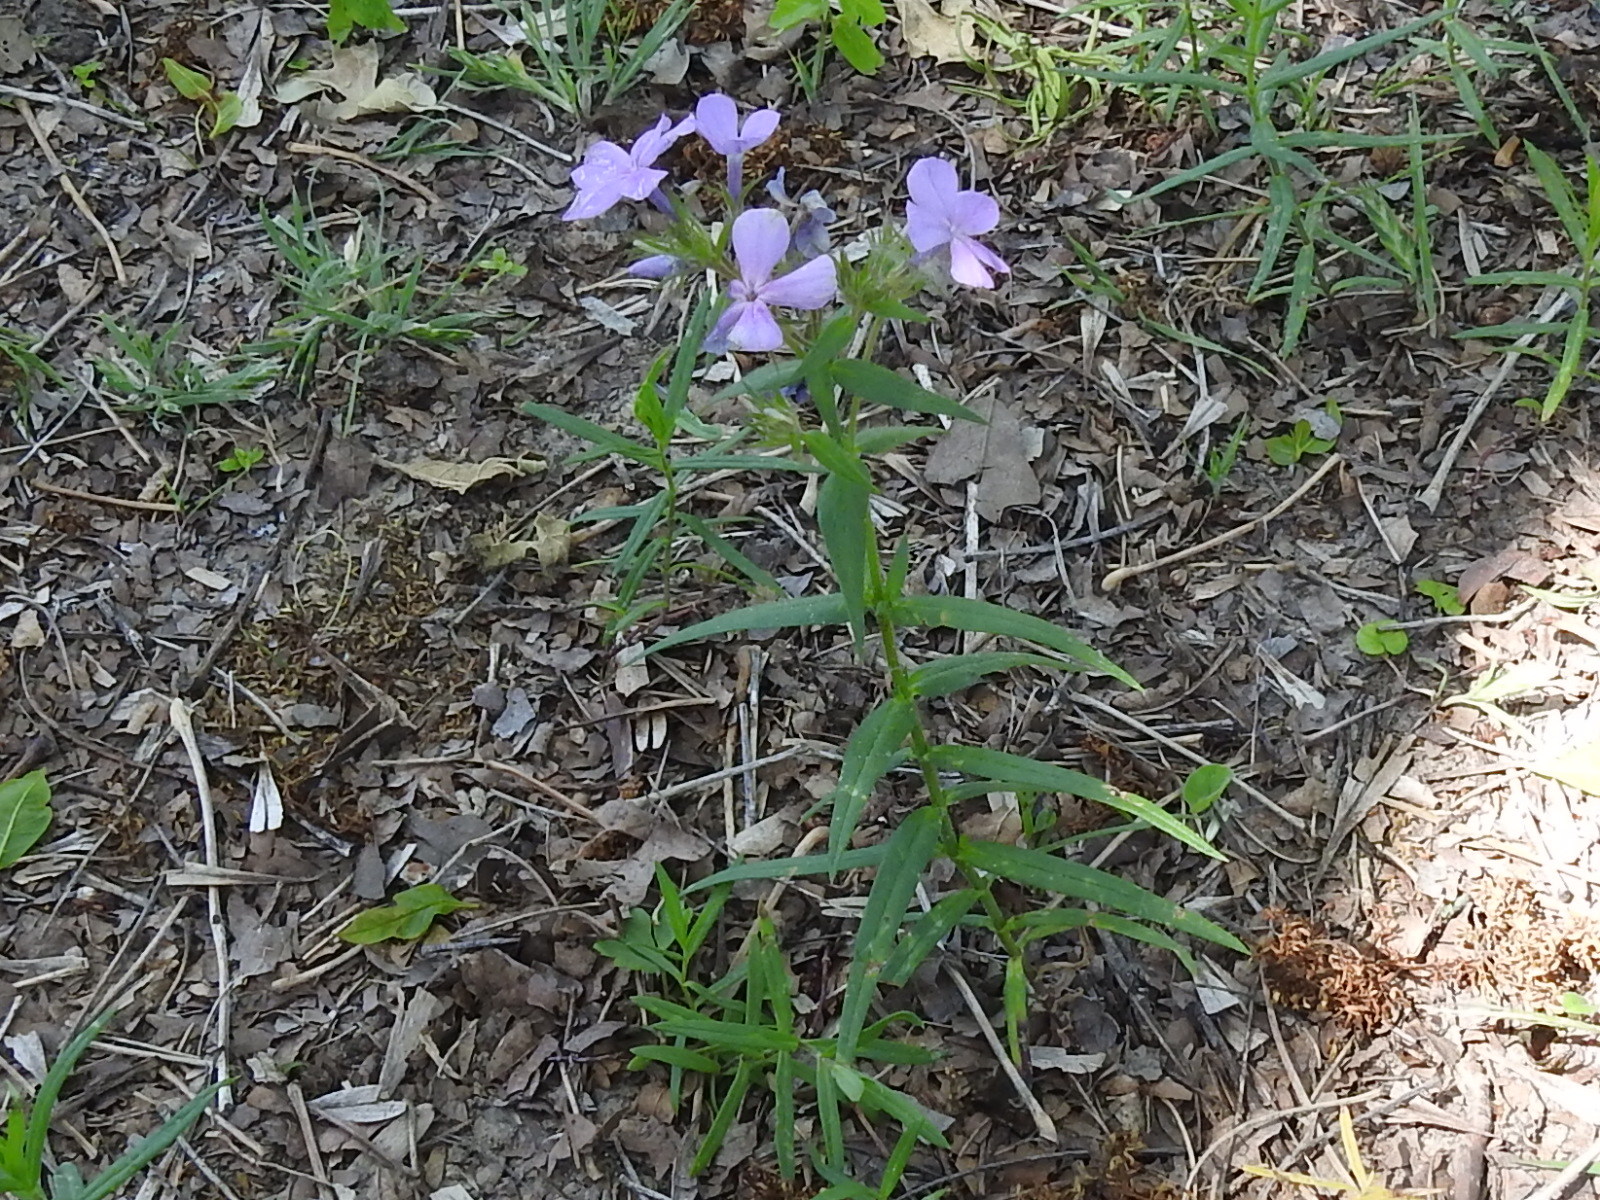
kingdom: Plantae
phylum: Tracheophyta
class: Magnoliopsida
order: Ericales
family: Polemoniaceae
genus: Phlox
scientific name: Phlox pilosa
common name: Prairie phlox
